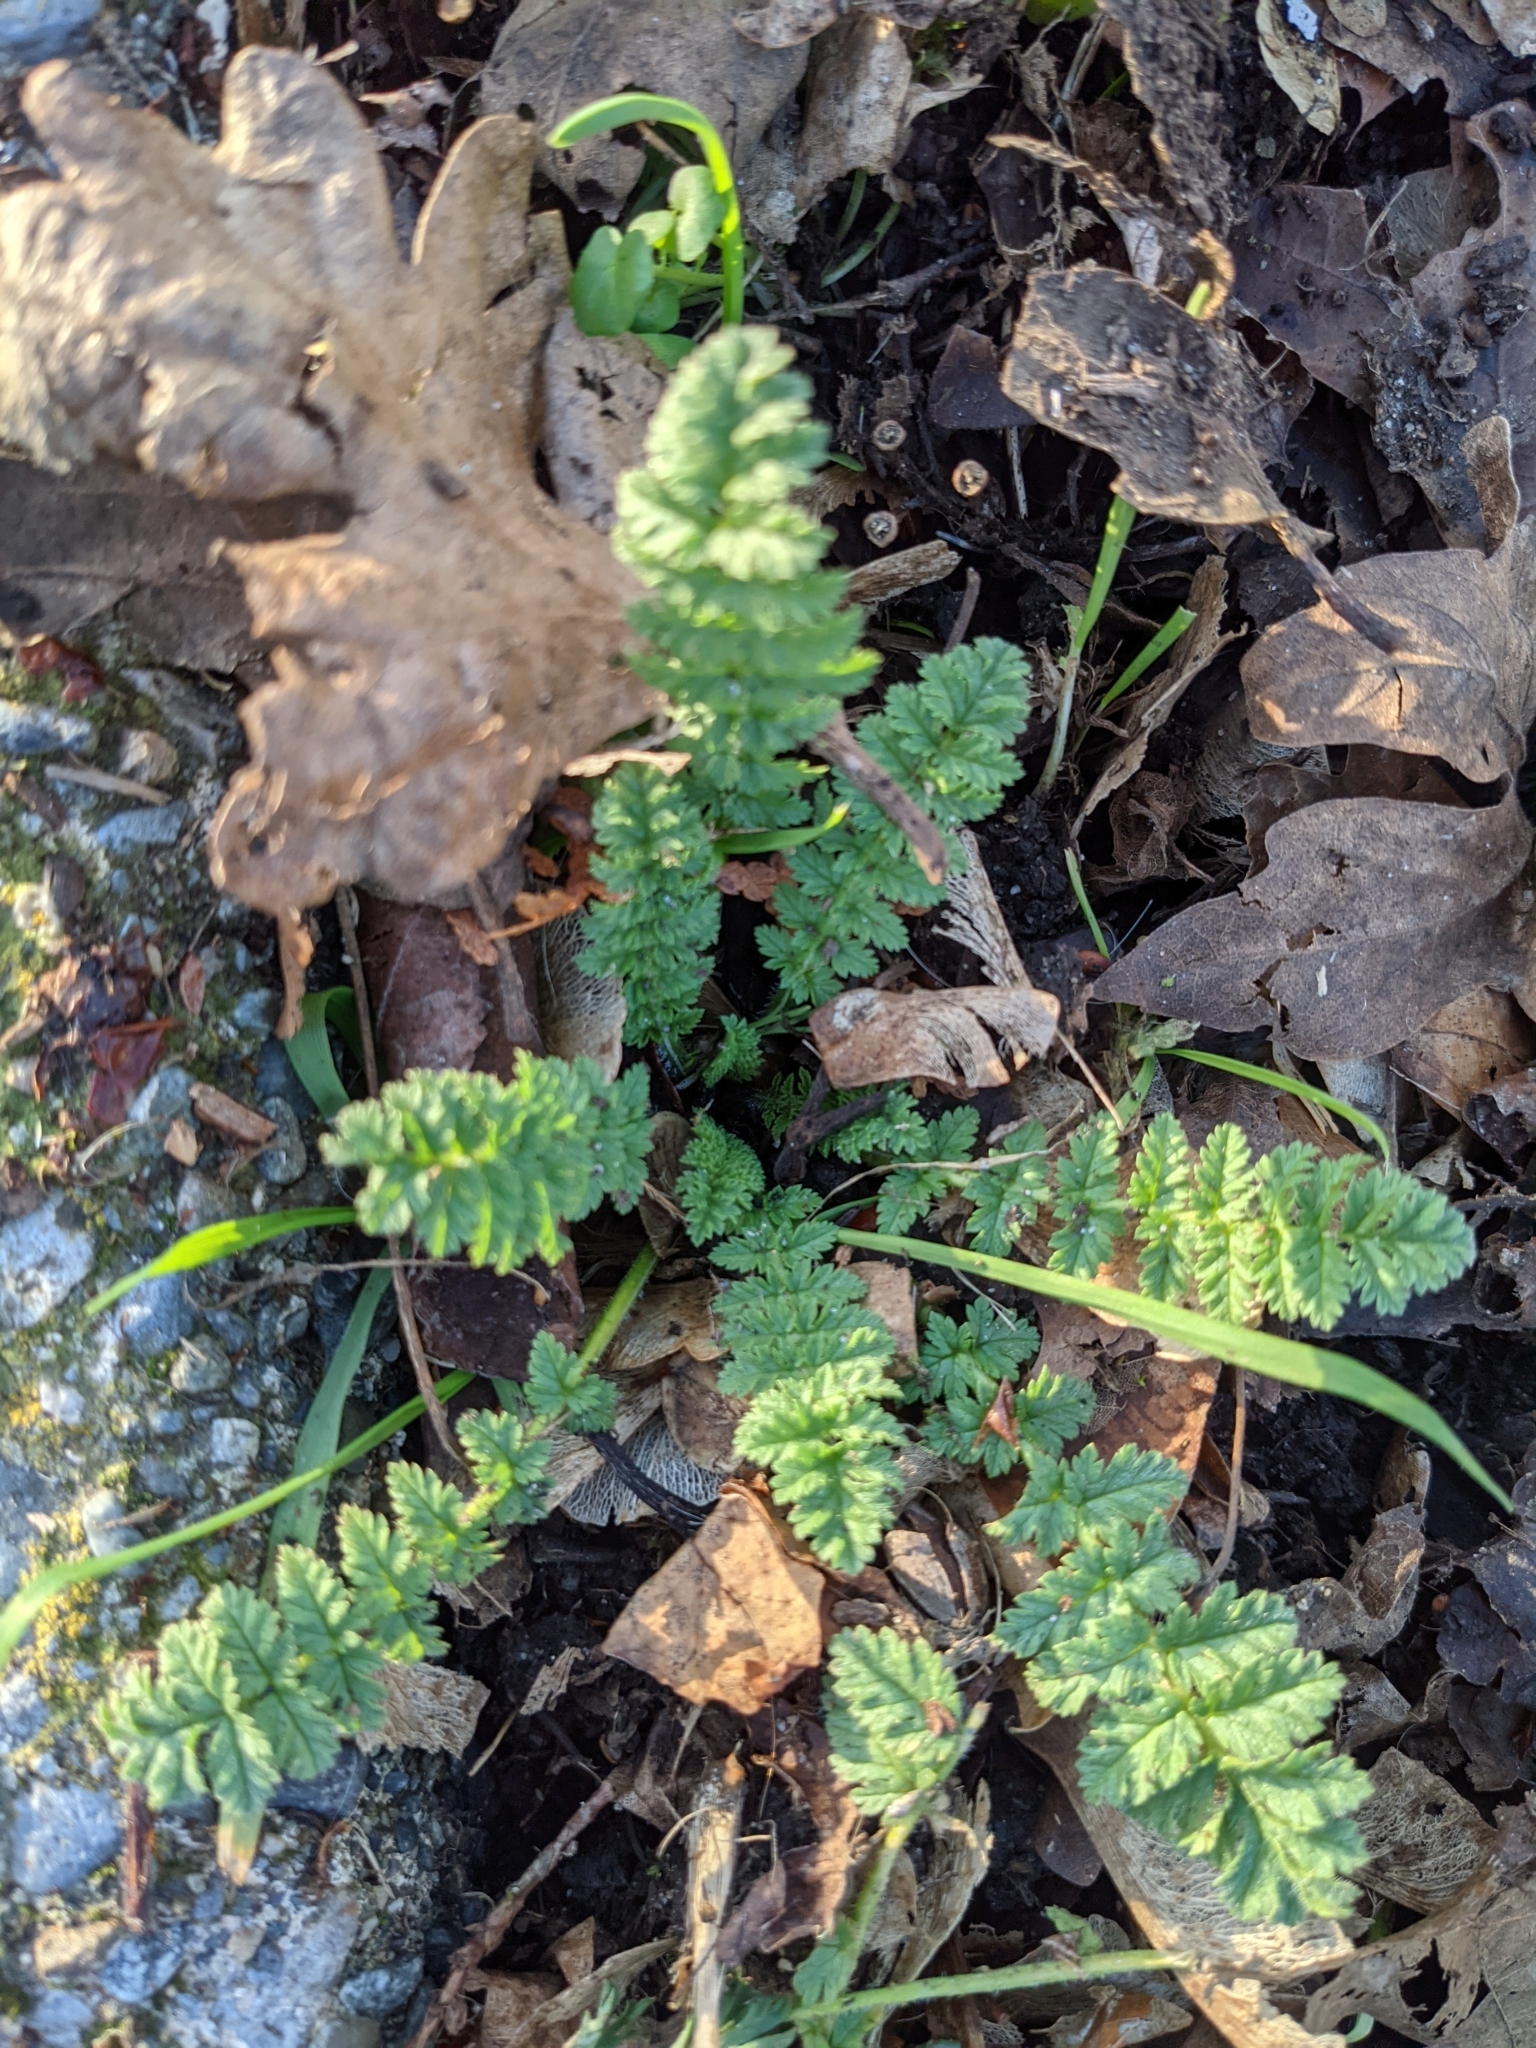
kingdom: Plantae
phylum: Tracheophyta
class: Magnoliopsida
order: Geraniales
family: Geraniaceae
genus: Erodium
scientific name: Erodium cicutarium
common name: Common stork's-bill
